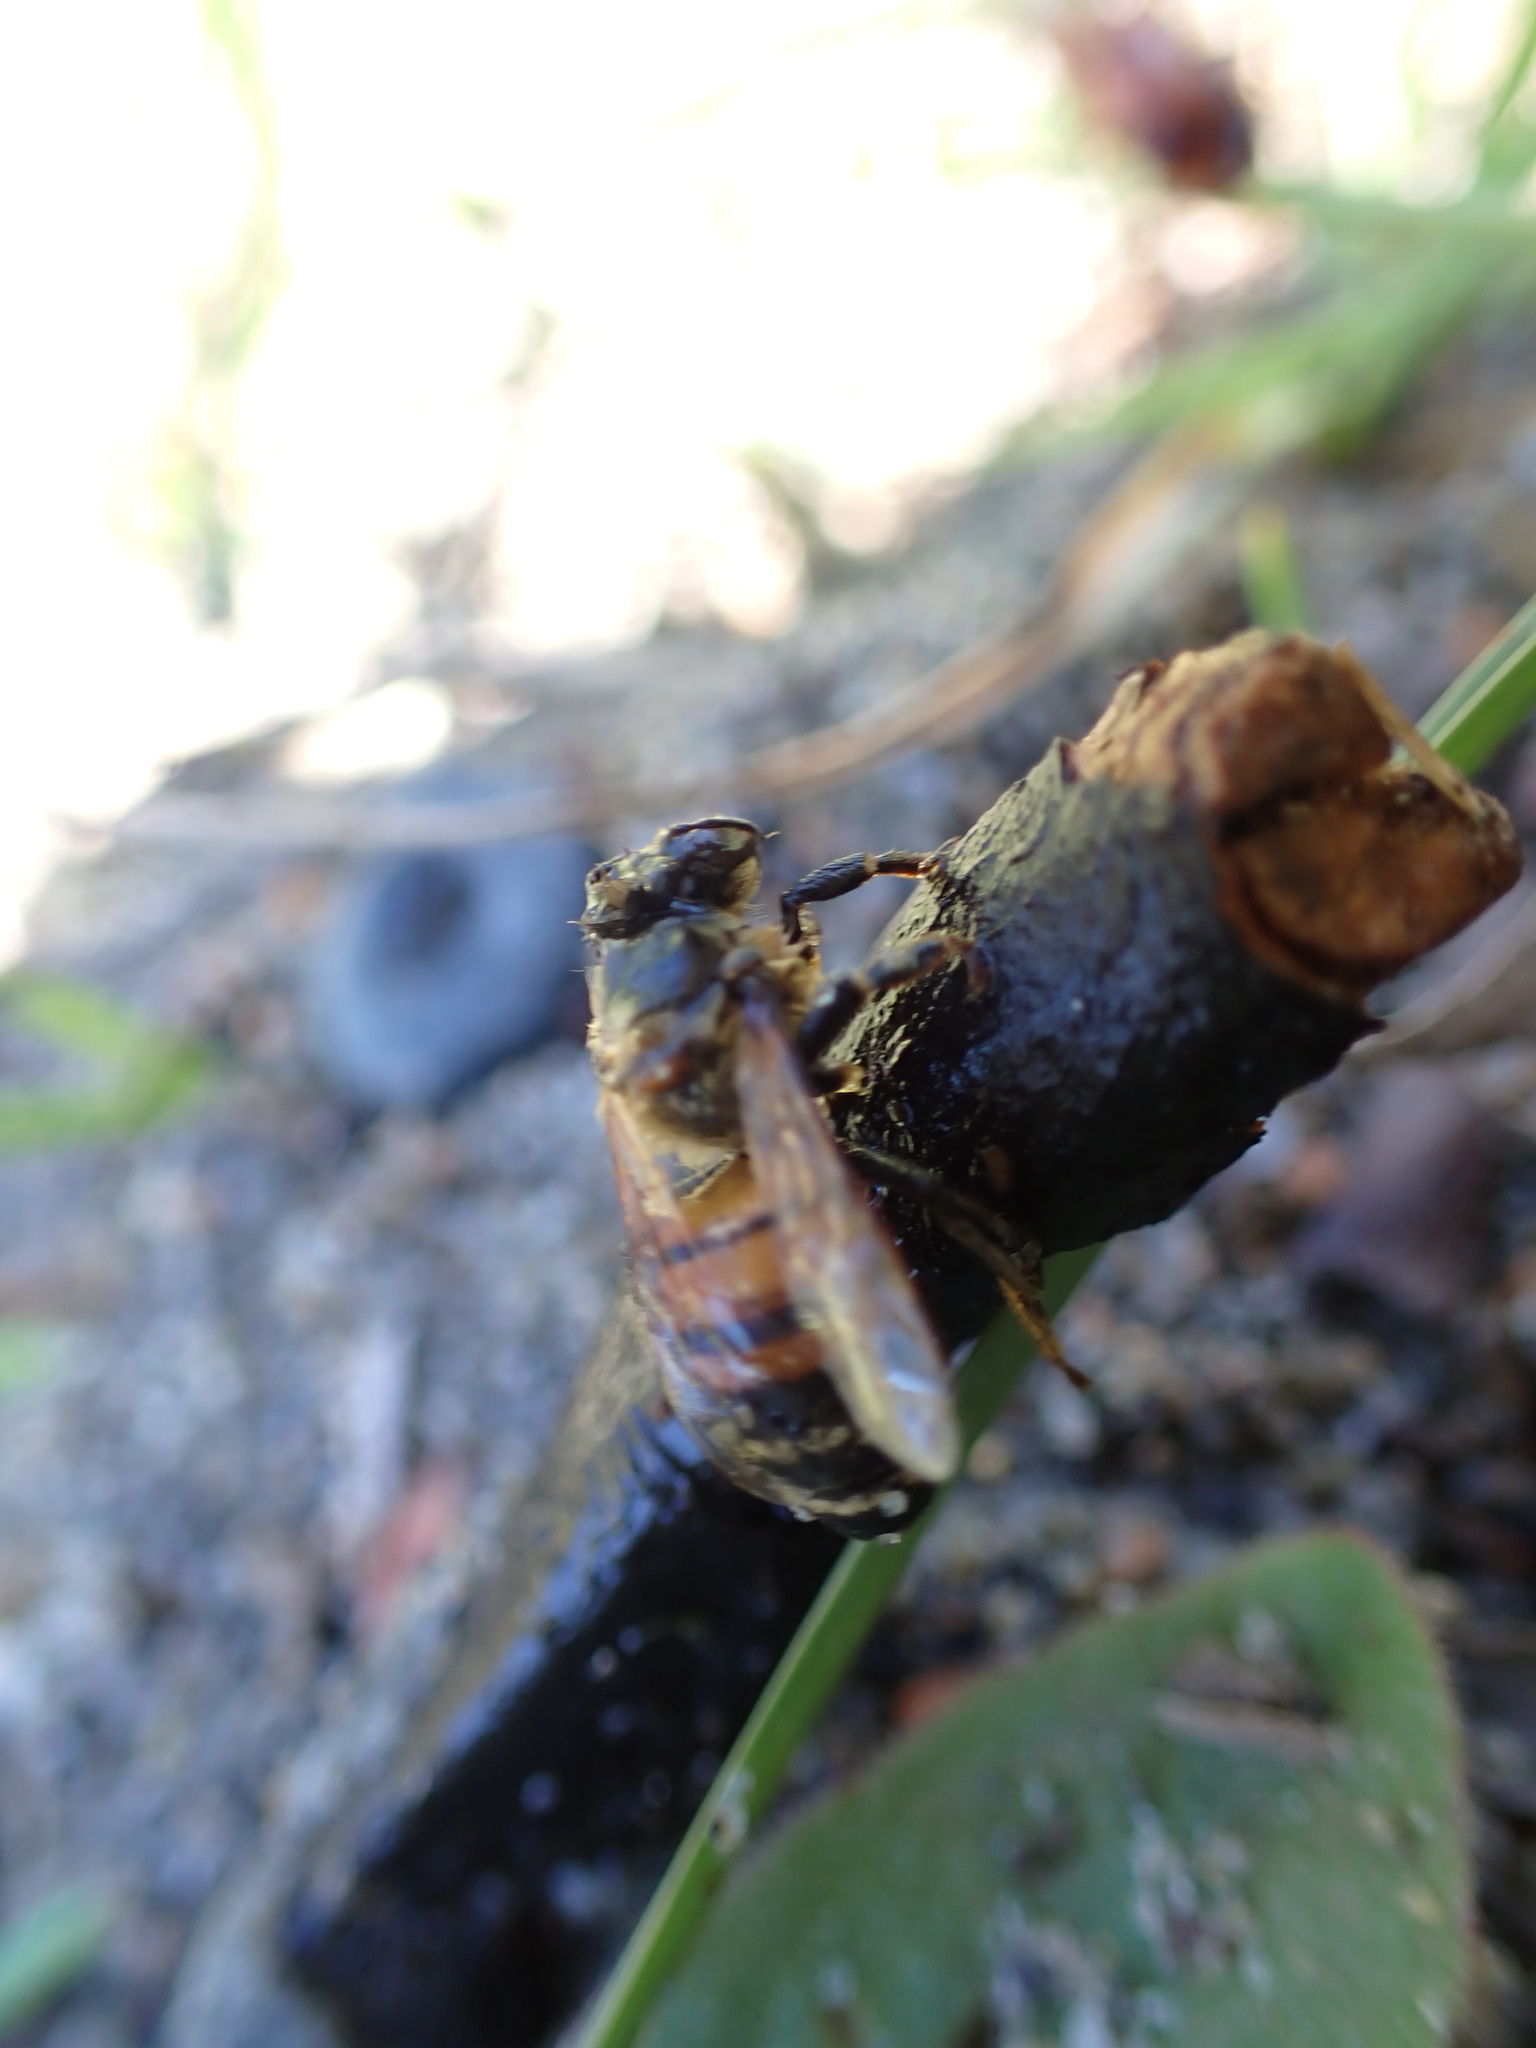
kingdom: Animalia
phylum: Arthropoda
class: Insecta
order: Hymenoptera
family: Apidae
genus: Apis
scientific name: Apis mellifera
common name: Honey bee
